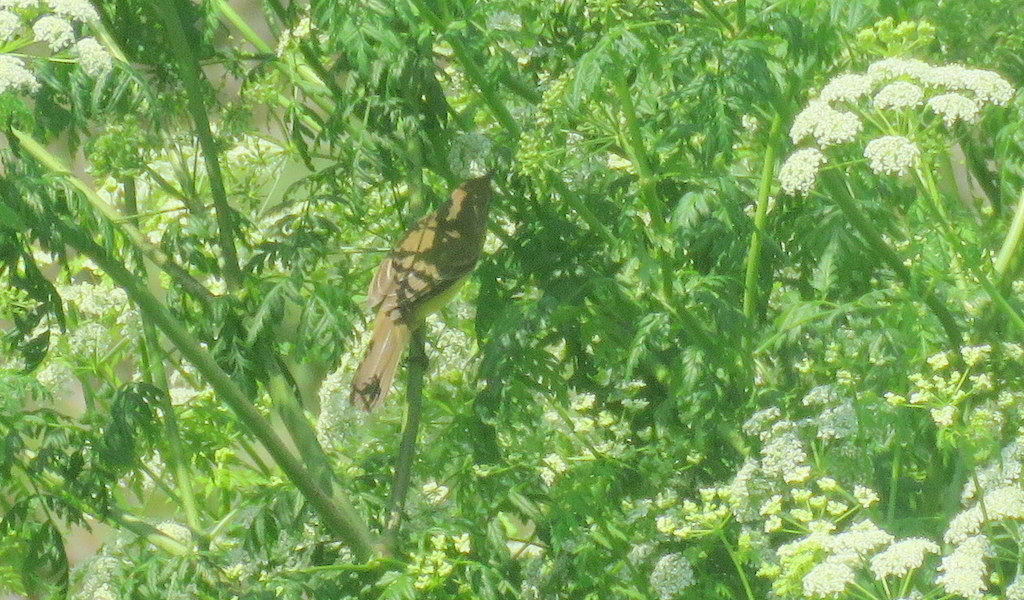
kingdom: Animalia
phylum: Chordata
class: Aves
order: Passeriformes
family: Tyrannidae
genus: Pseudocolopteryx
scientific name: Pseudocolopteryx flaviventris
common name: Warbling doradito
